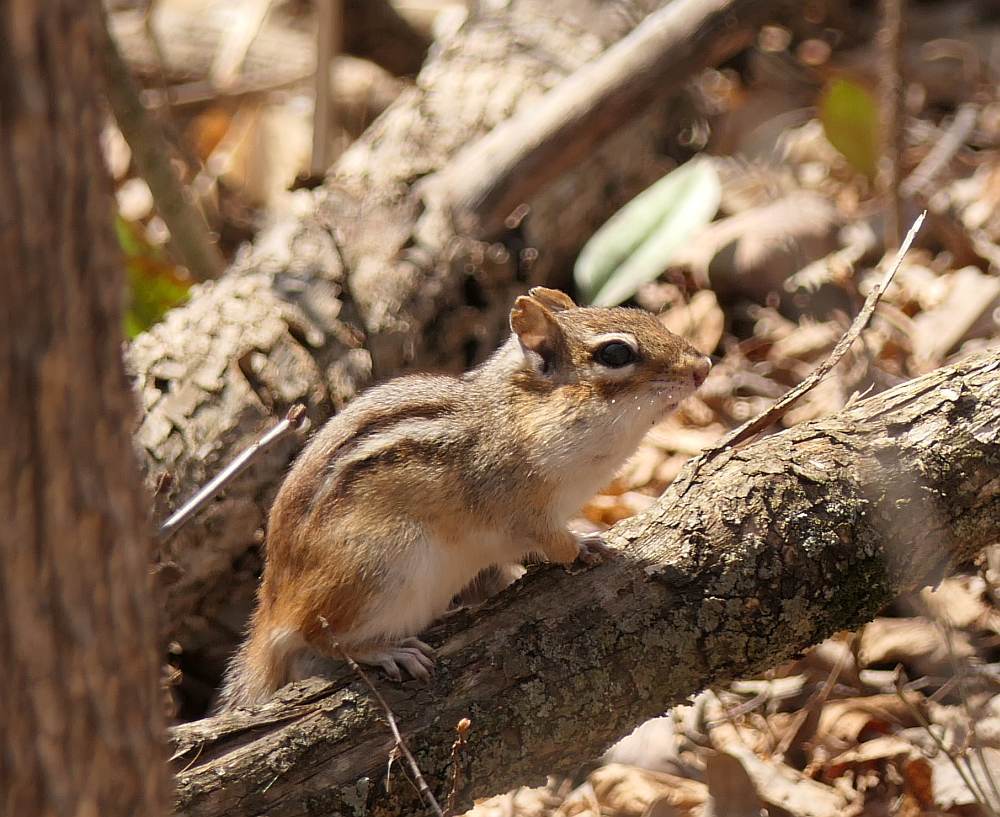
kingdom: Animalia
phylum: Chordata
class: Mammalia
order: Rodentia
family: Sciuridae
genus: Tamias
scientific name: Tamias striatus
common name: Eastern chipmunk
